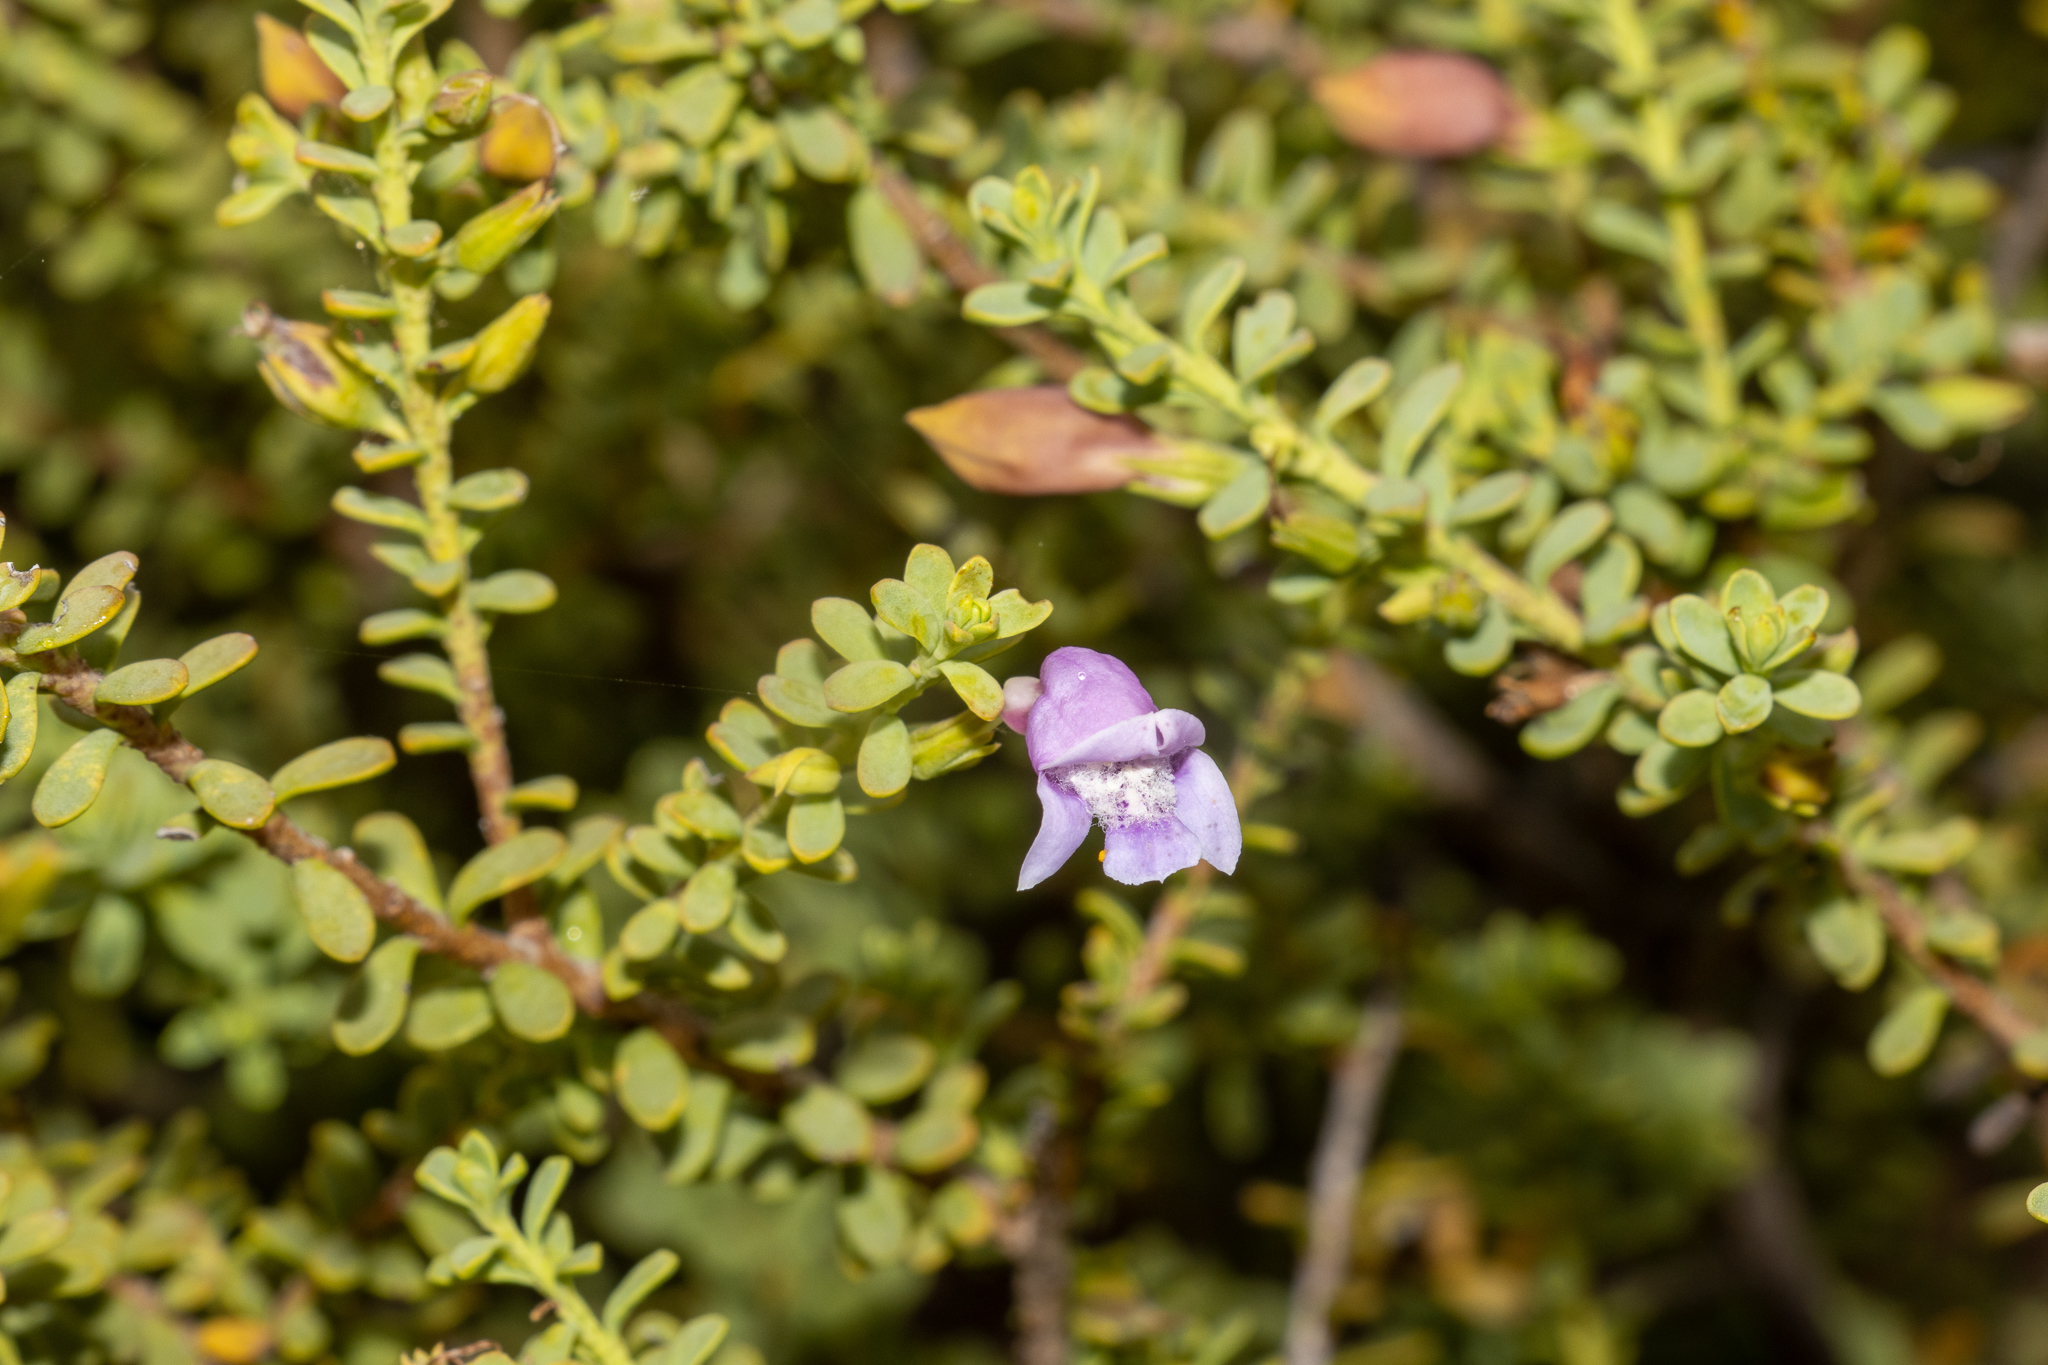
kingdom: Plantae
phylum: Tracheophyta
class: Magnoliopsida
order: Lamiales
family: Scrophulariaceae
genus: Eremophila
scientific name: Eremophila weldii
